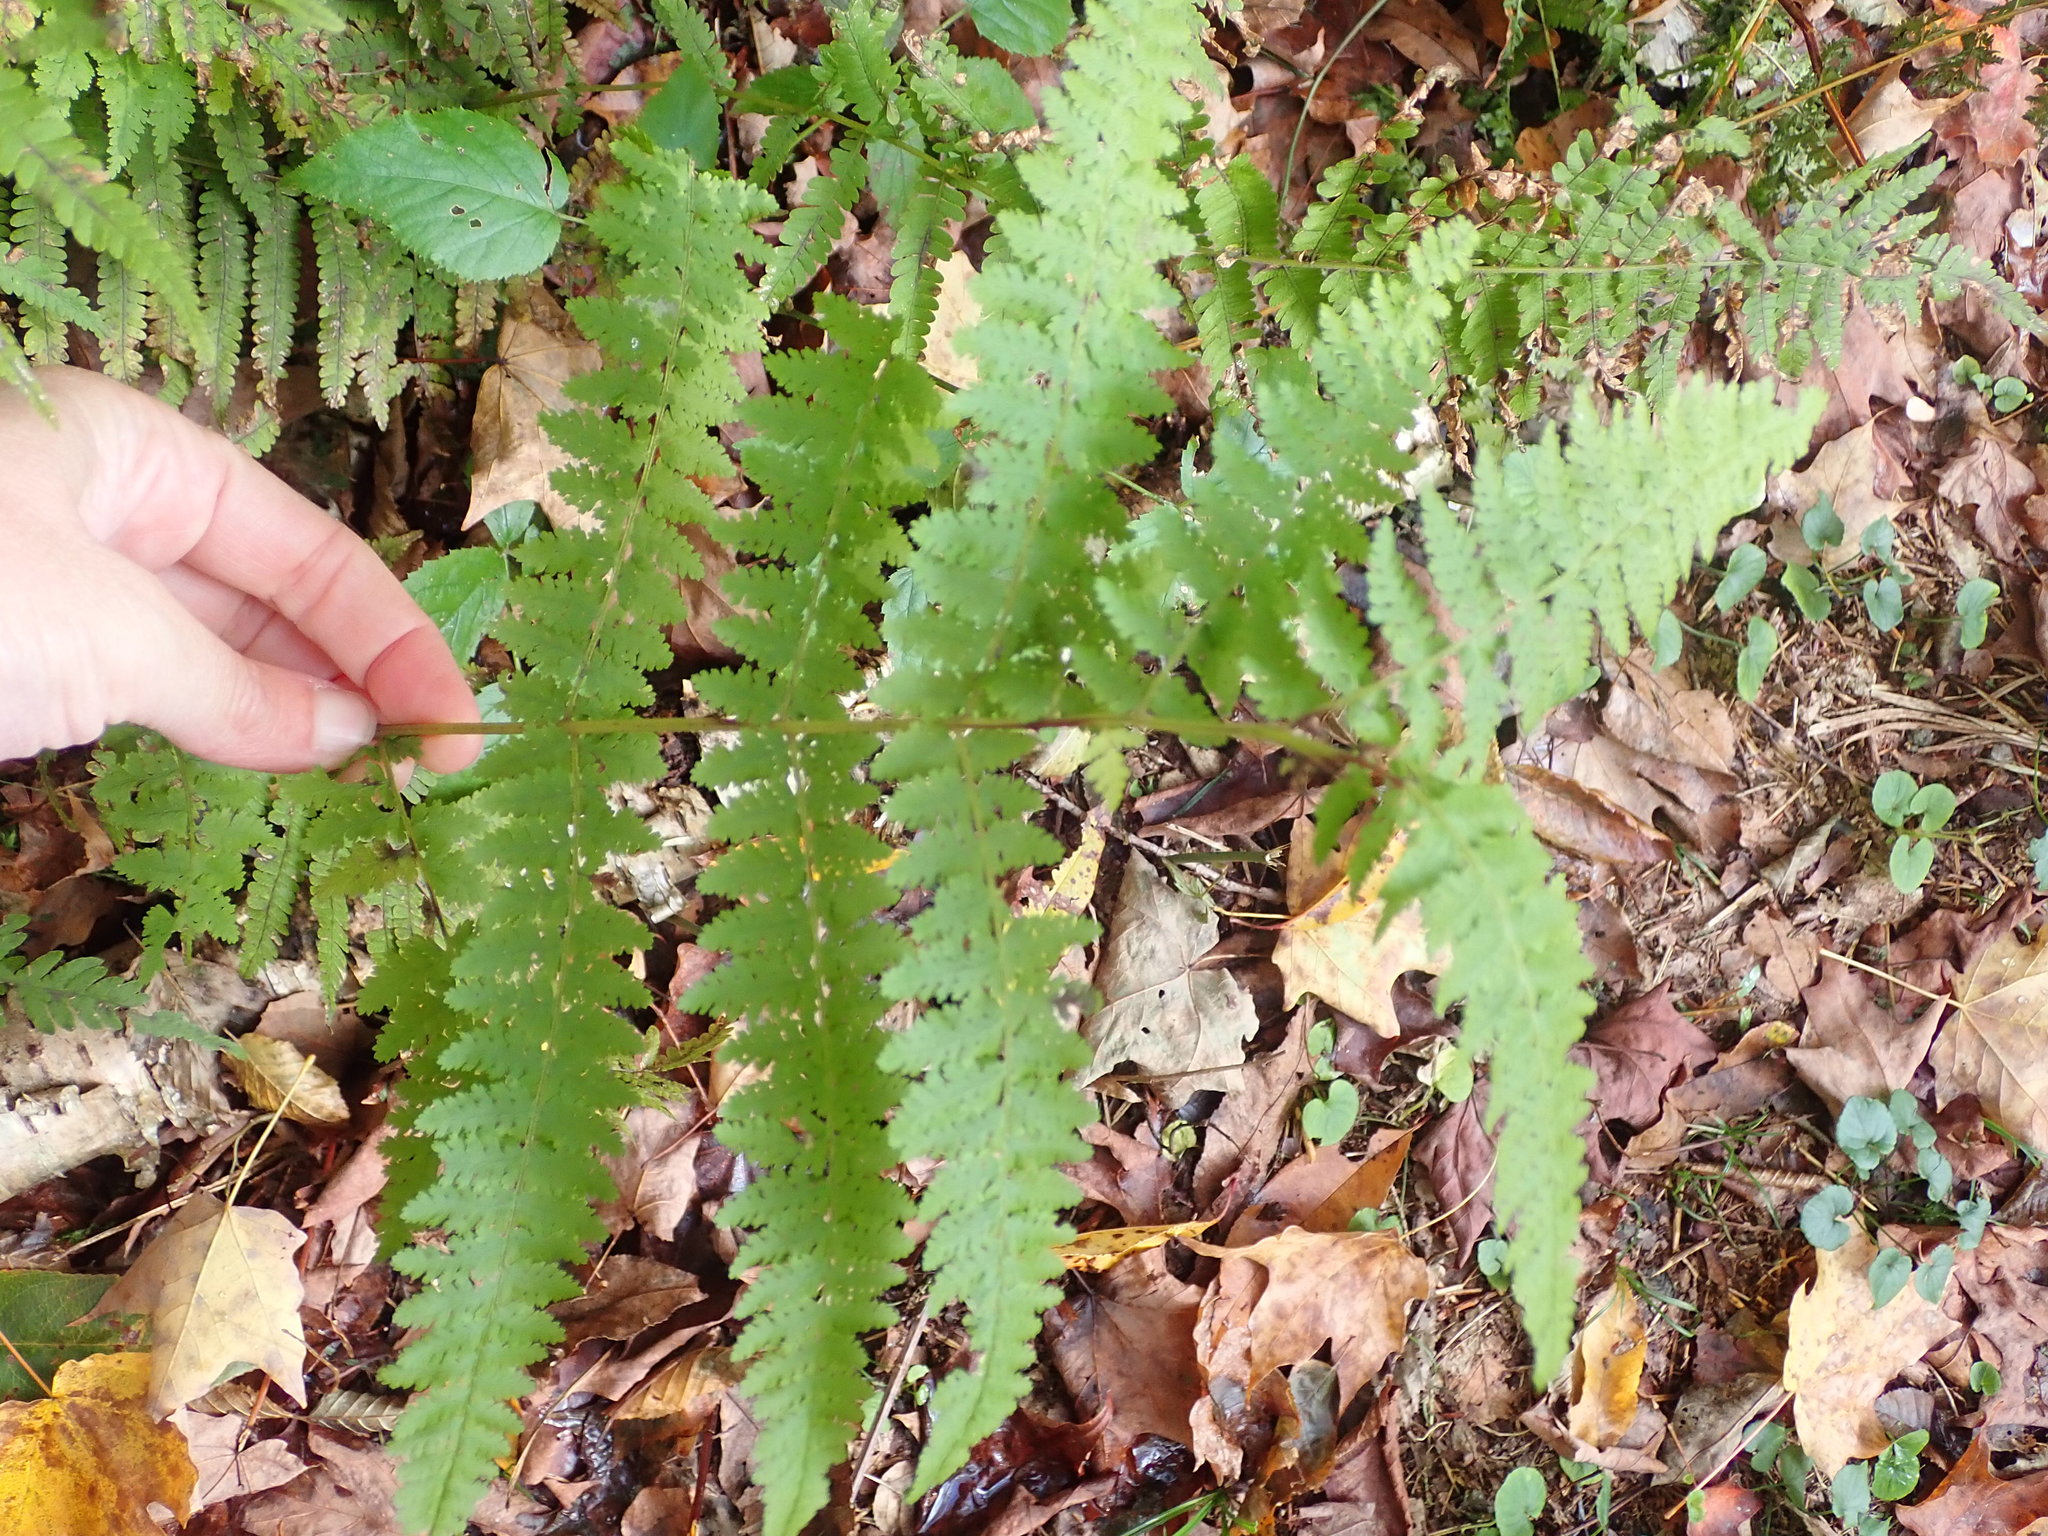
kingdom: Plantae
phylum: Tracheophyta
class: Polypodiopsida
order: Polypodiales
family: Dennstaedtiaceae
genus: Sitobolium
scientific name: Sitobolium punctilobum
